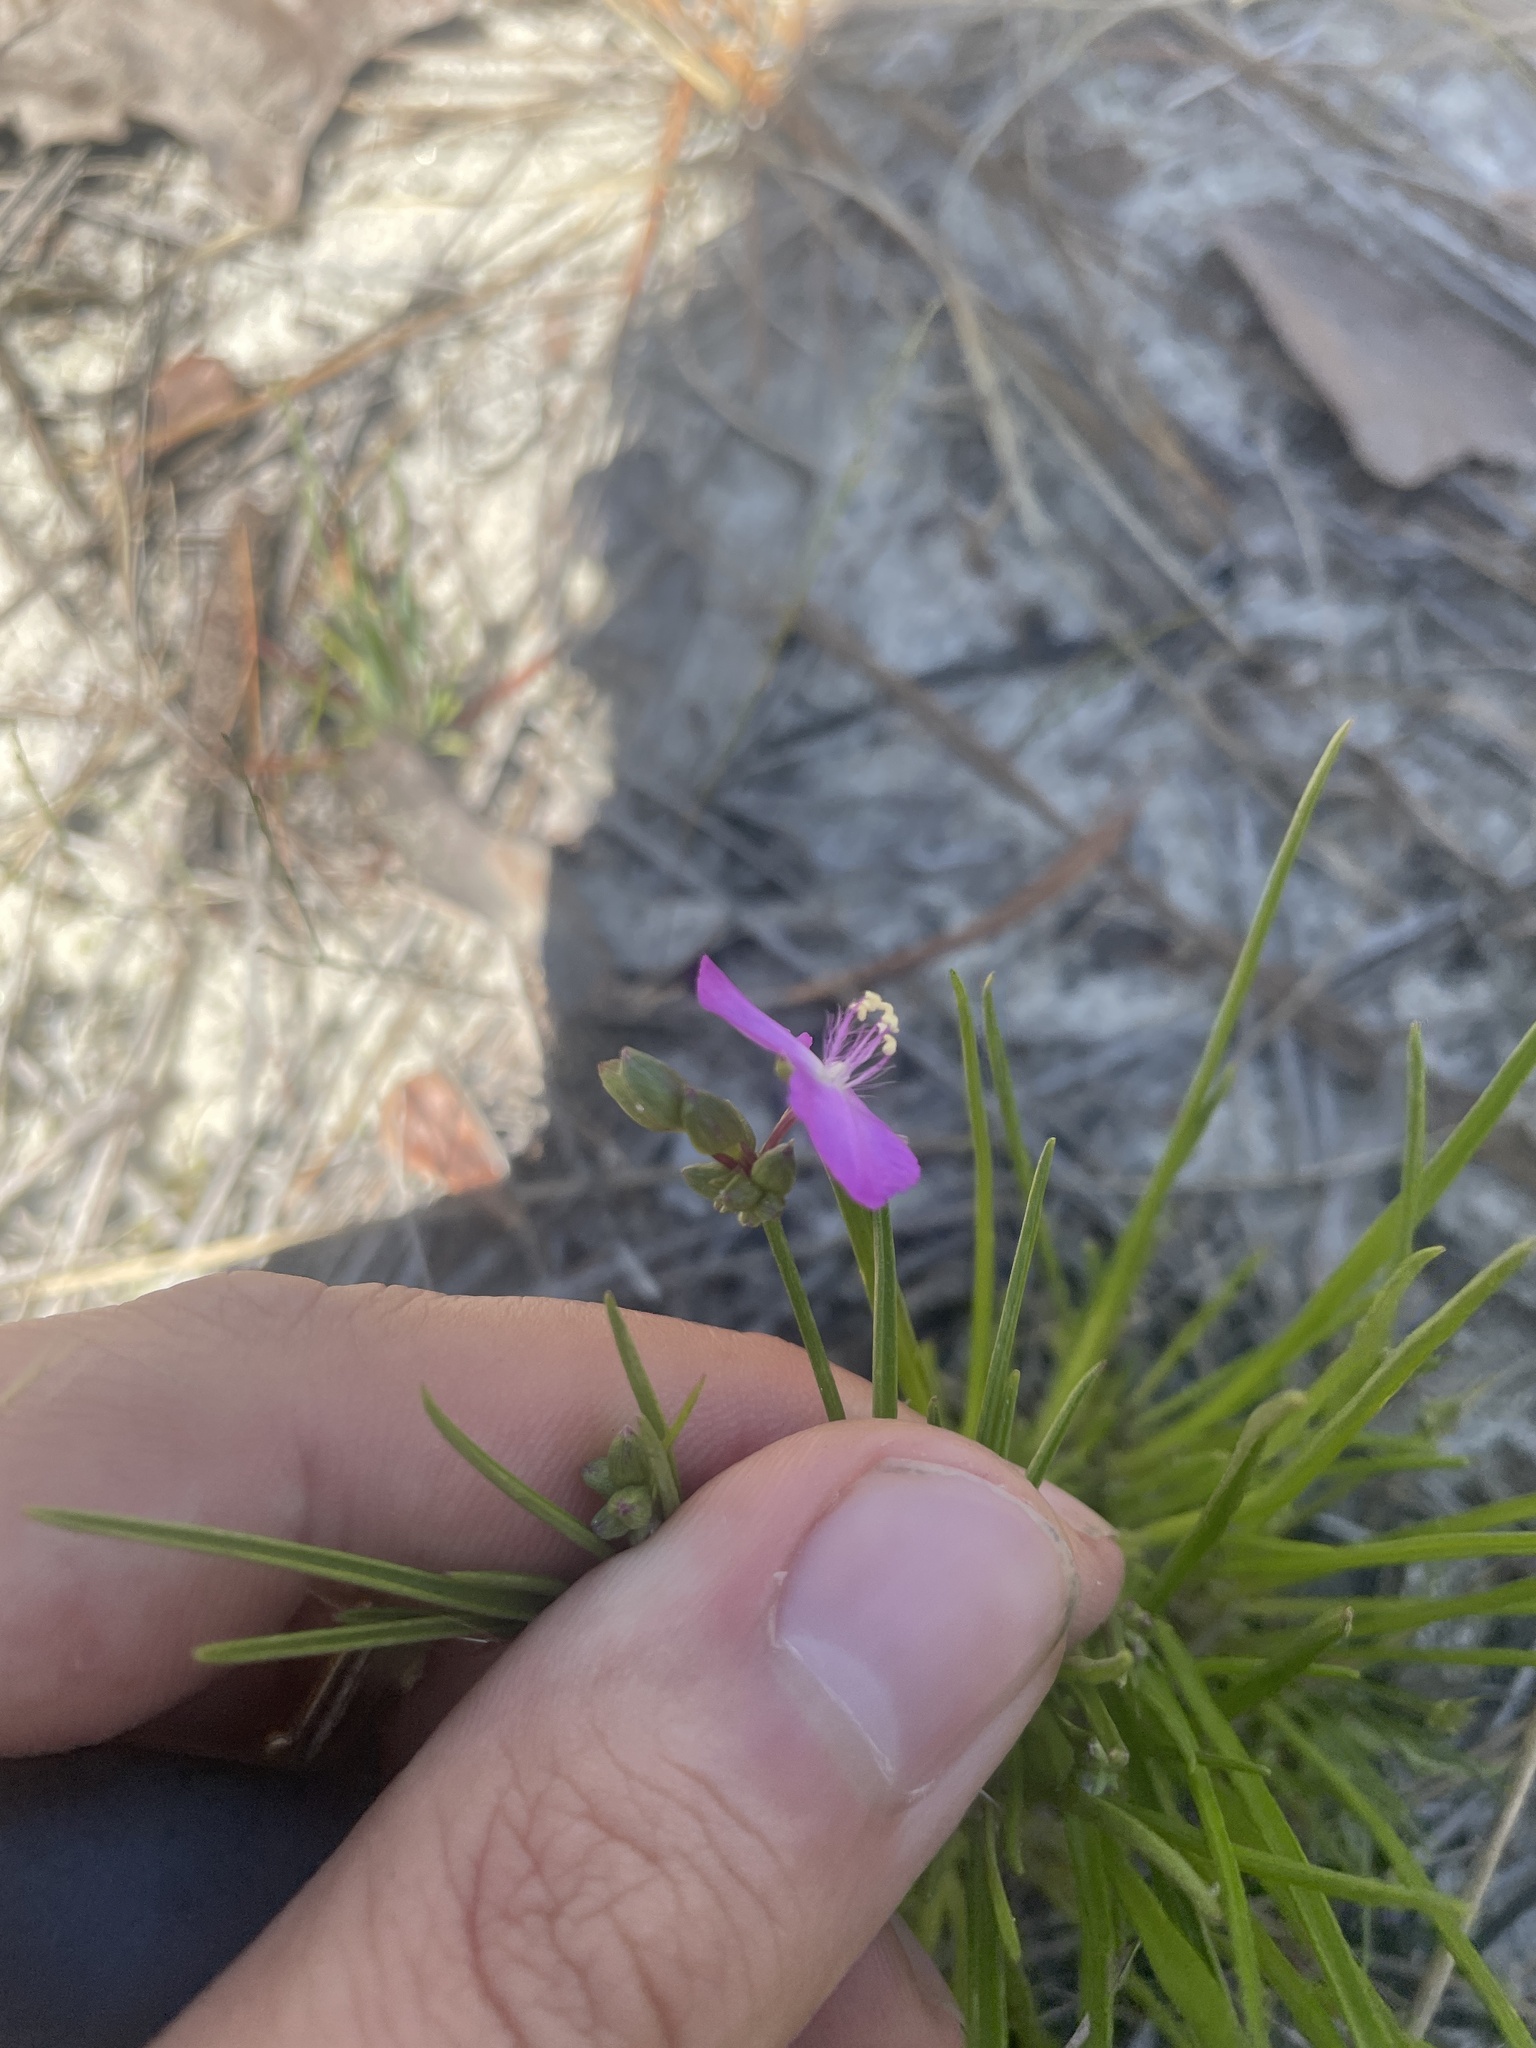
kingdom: Plantae
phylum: Tracheophyta
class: Liliopsida
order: Commelinales
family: Commelinaceae
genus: Callisia
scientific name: Callisia graminea
